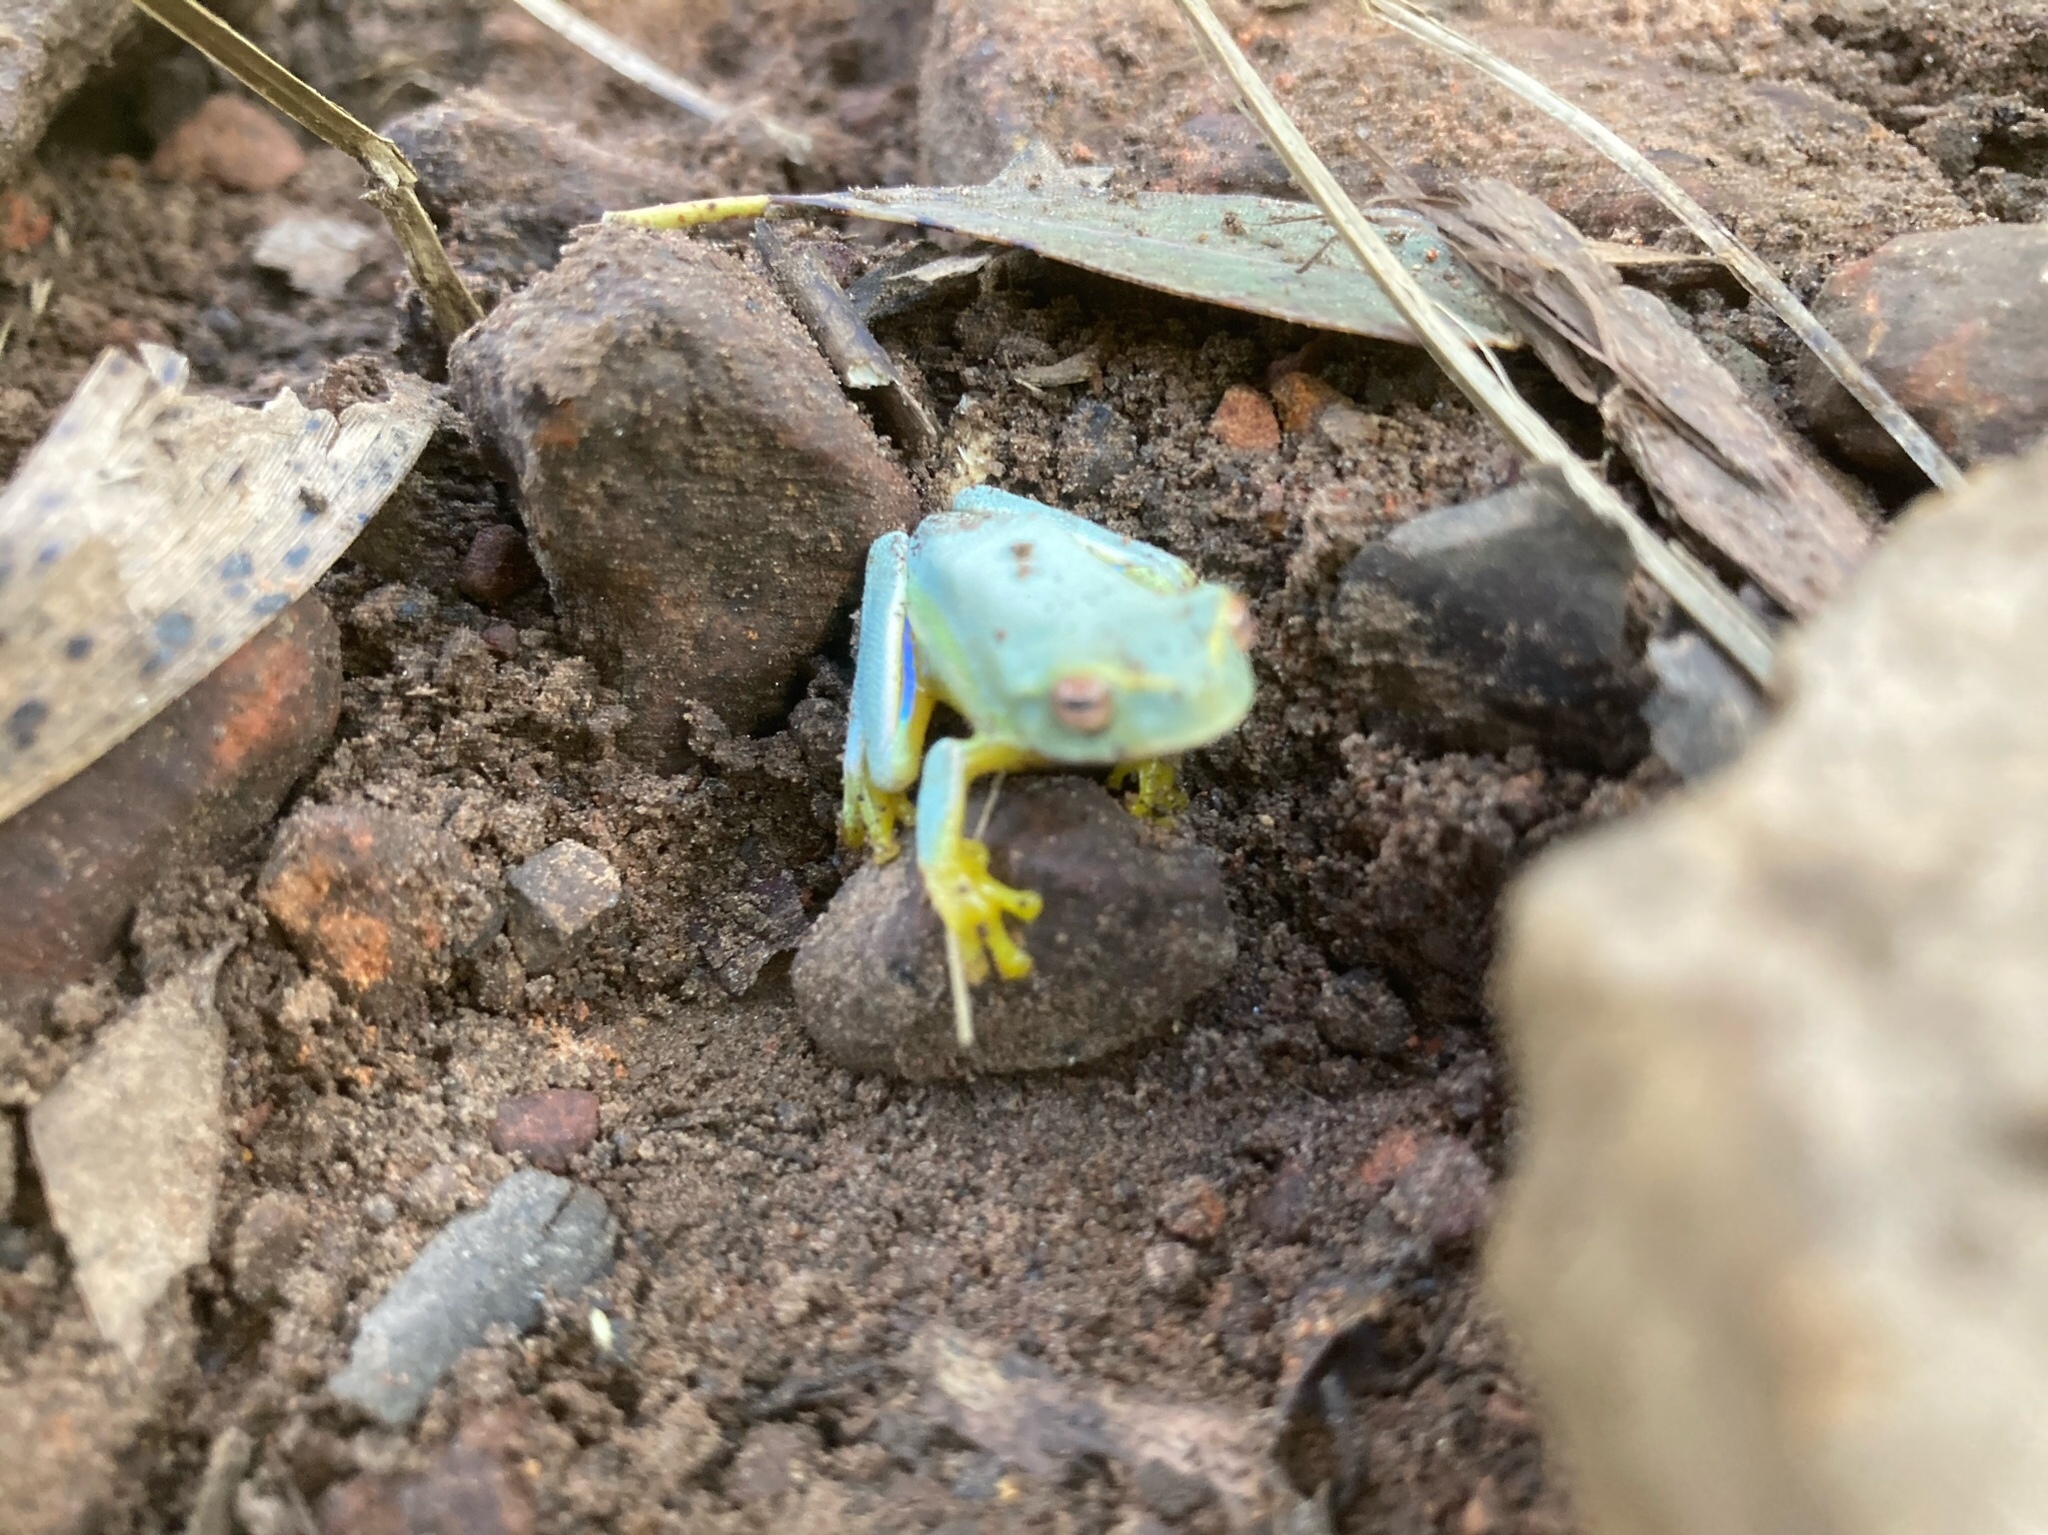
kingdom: Animalia
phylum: Chordata
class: Amphibia
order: Anura
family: Pelodryadidae
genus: Ranoidea
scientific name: Ranoidea gracilenta
